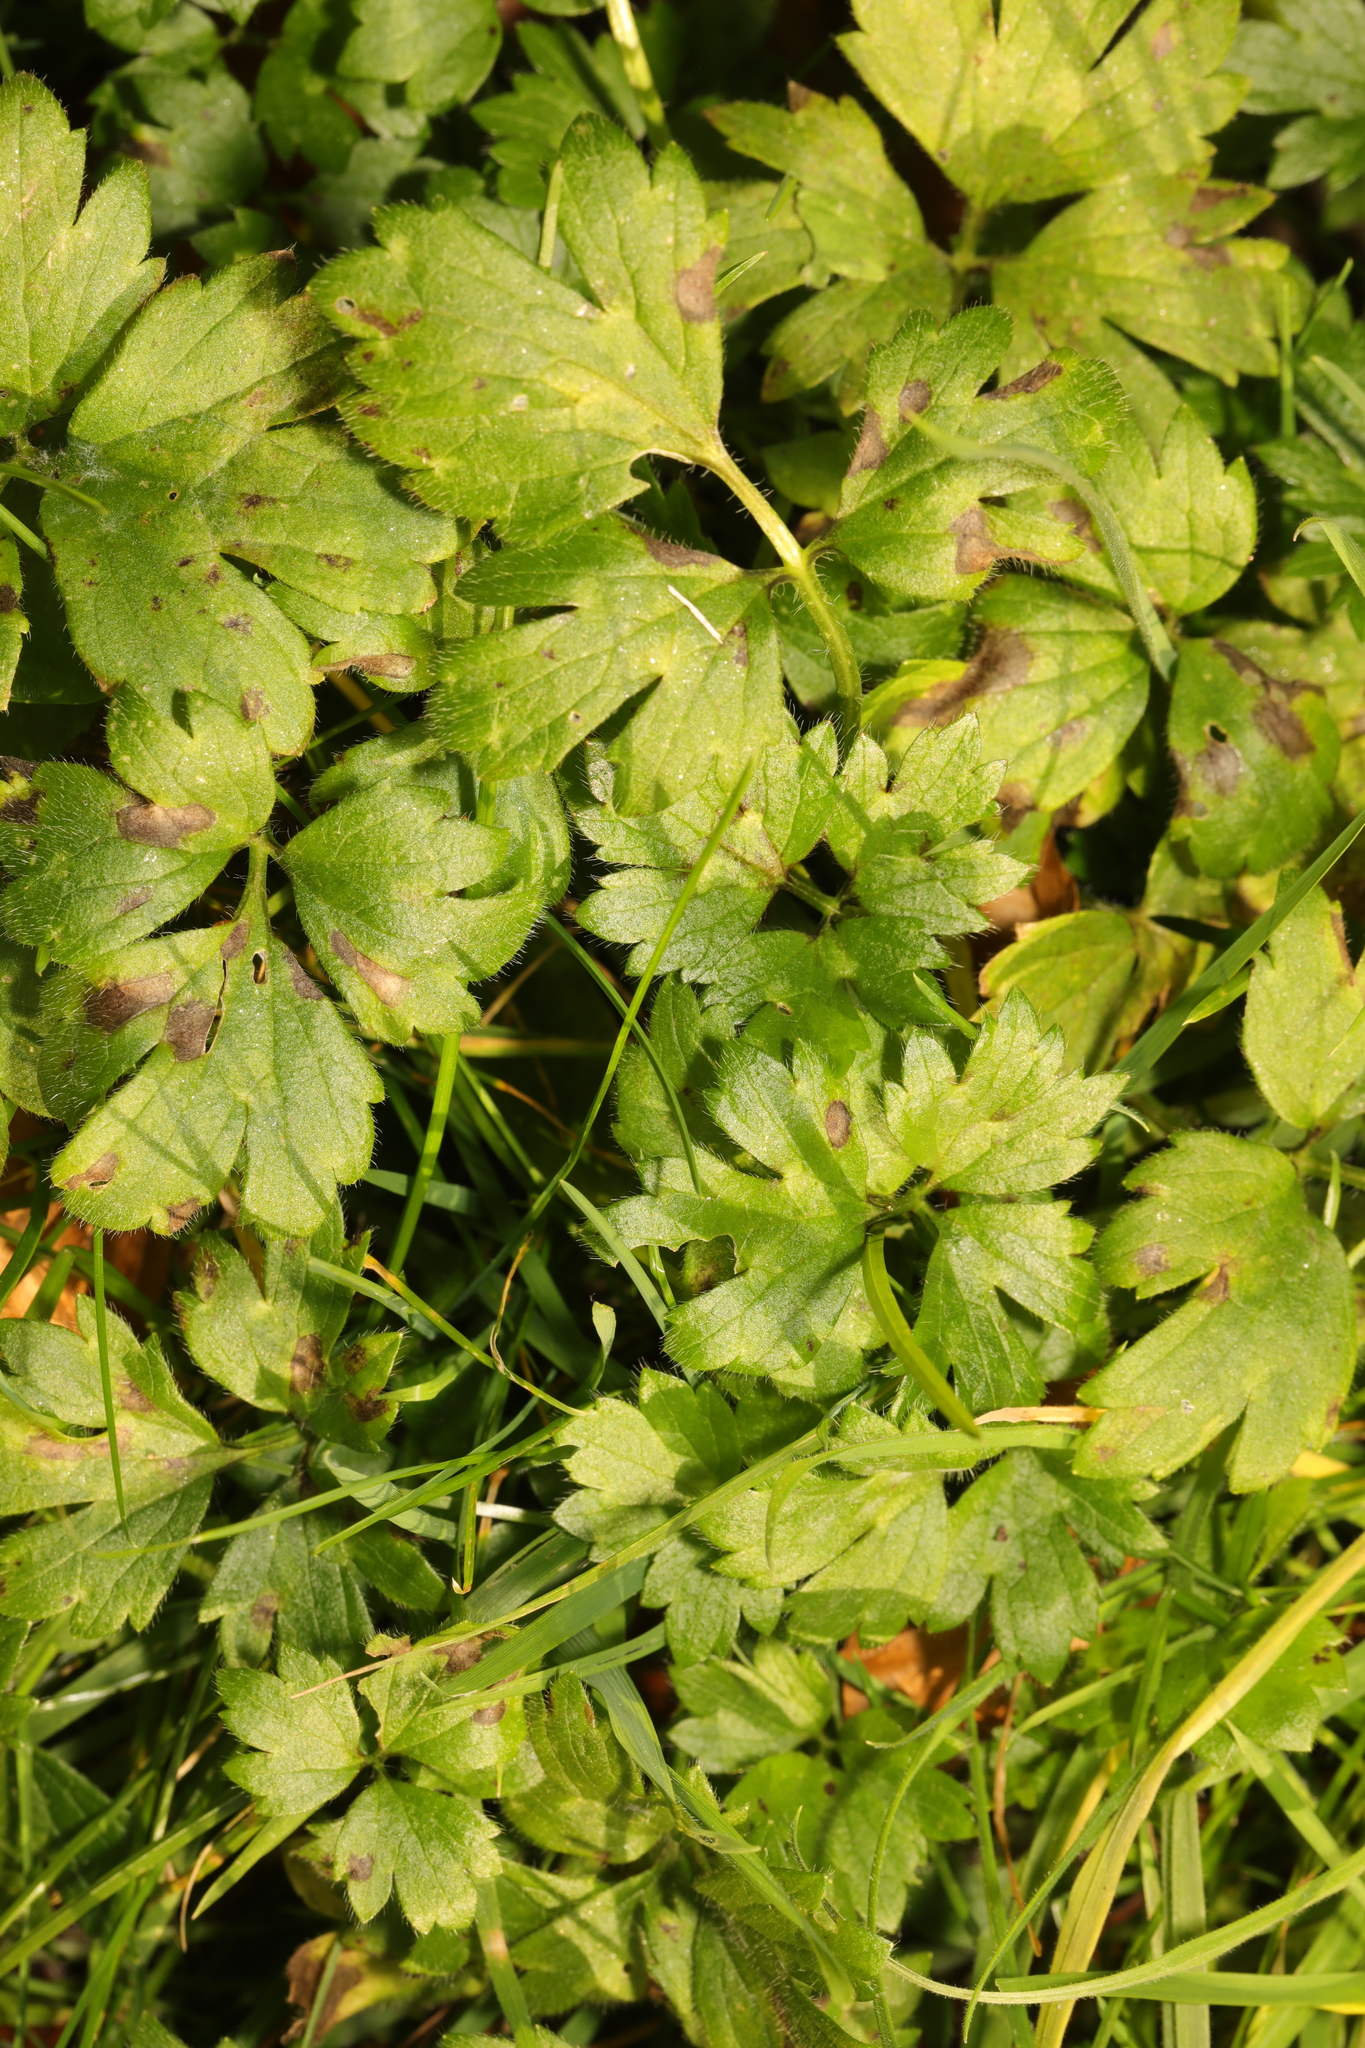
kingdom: Plantae
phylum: Tracheophyta
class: Magnoliopsida
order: Ranunculales
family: Ranunculaceae
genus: Ranunculus
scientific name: Ranunculus repens
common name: Creeping buttercup
